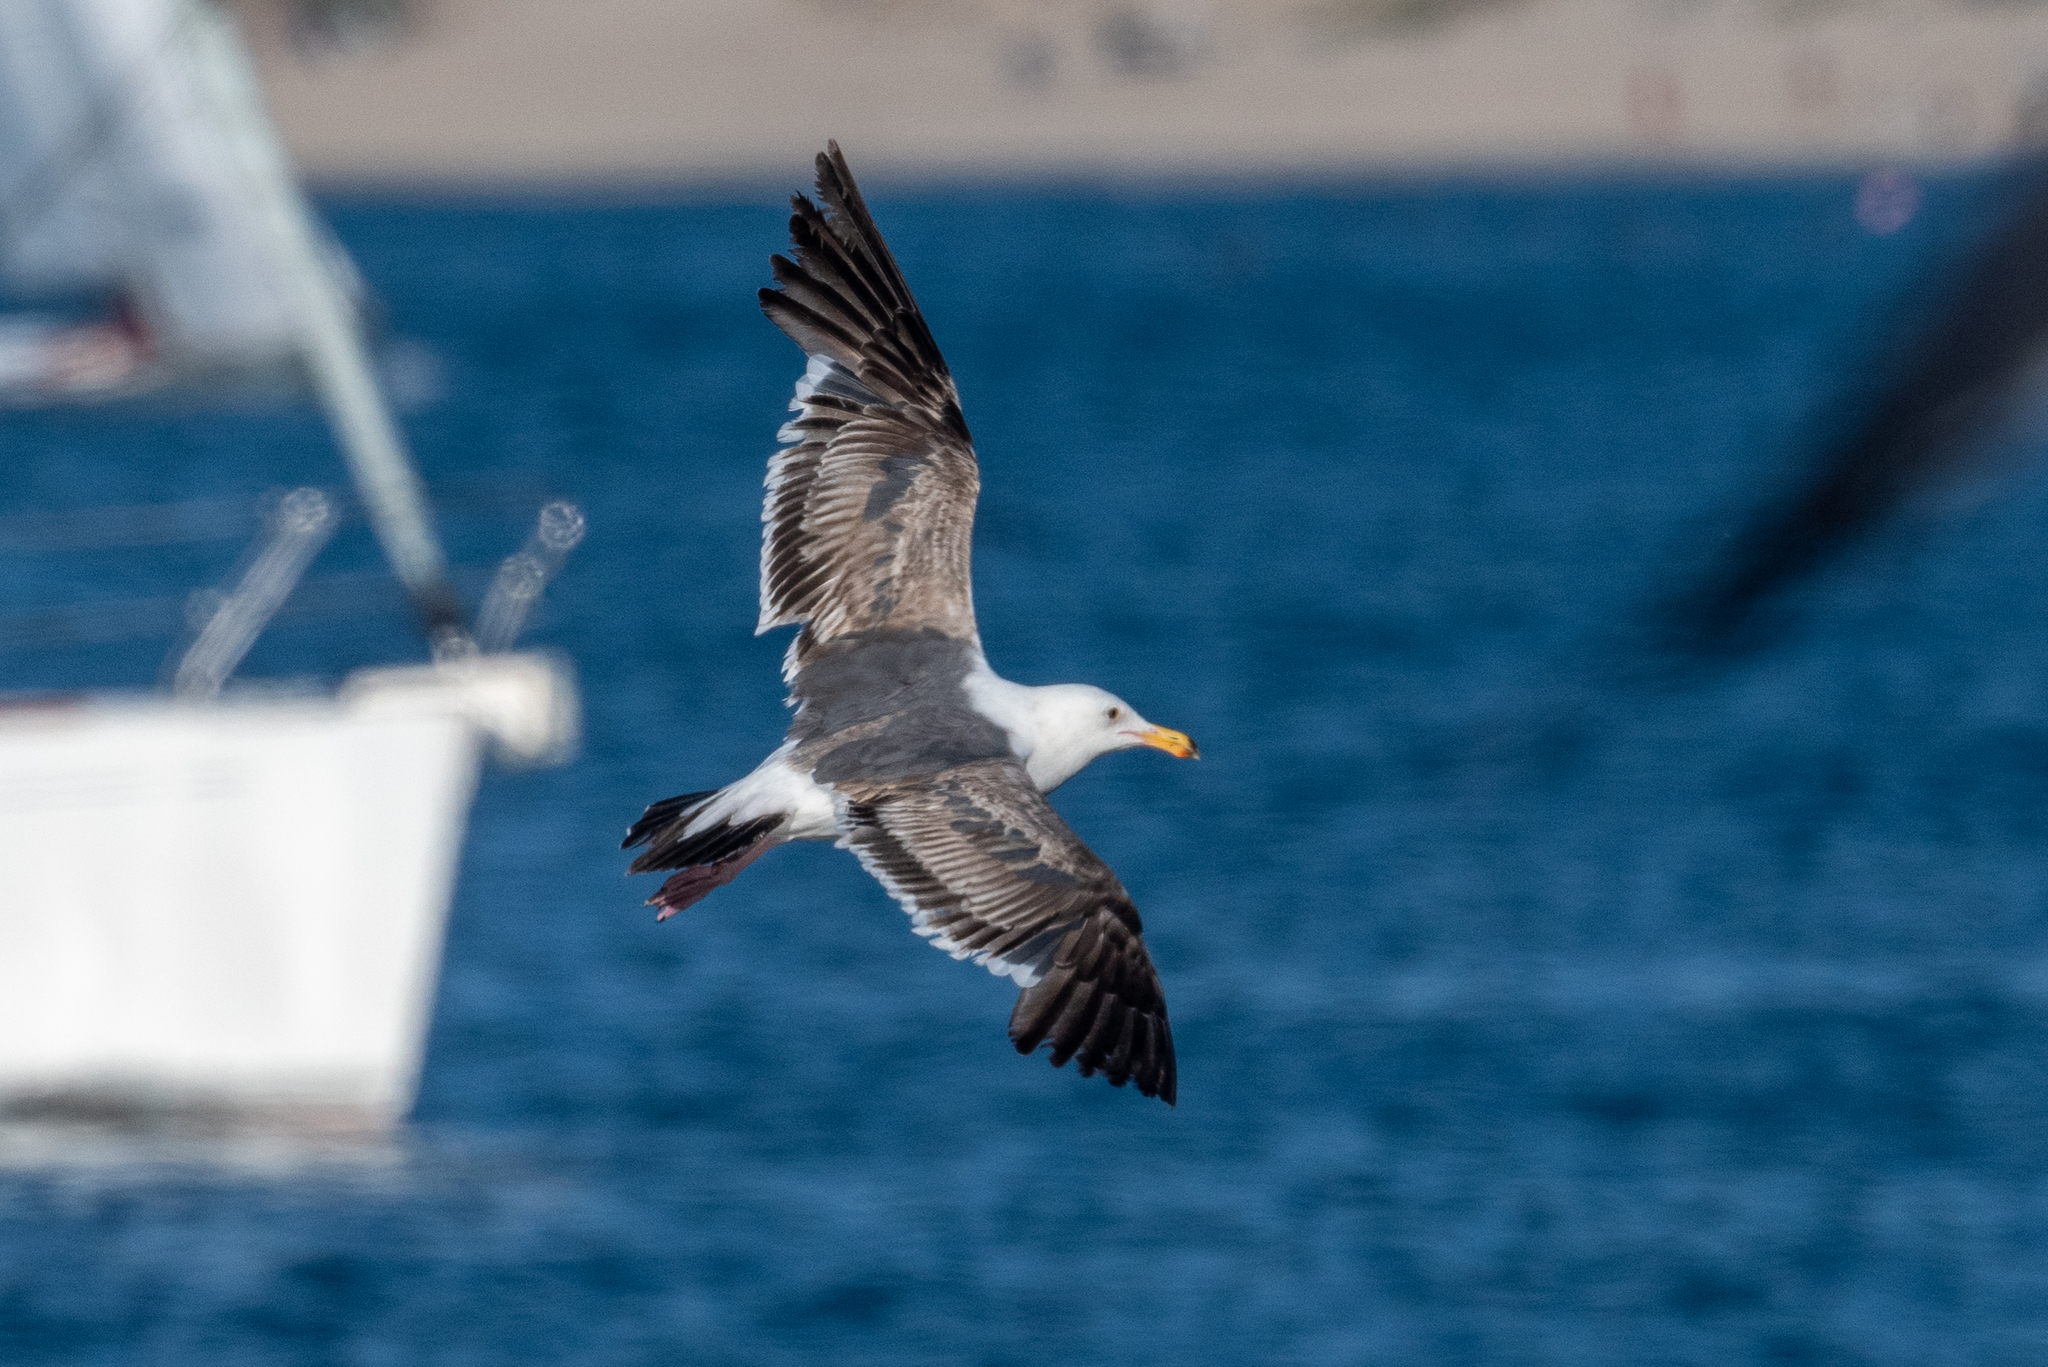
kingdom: Animalia
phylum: Chordata
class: Aves
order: Charadriiformes
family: Laridae
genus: Larus
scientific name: Larus occidentalis
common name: Western gull
